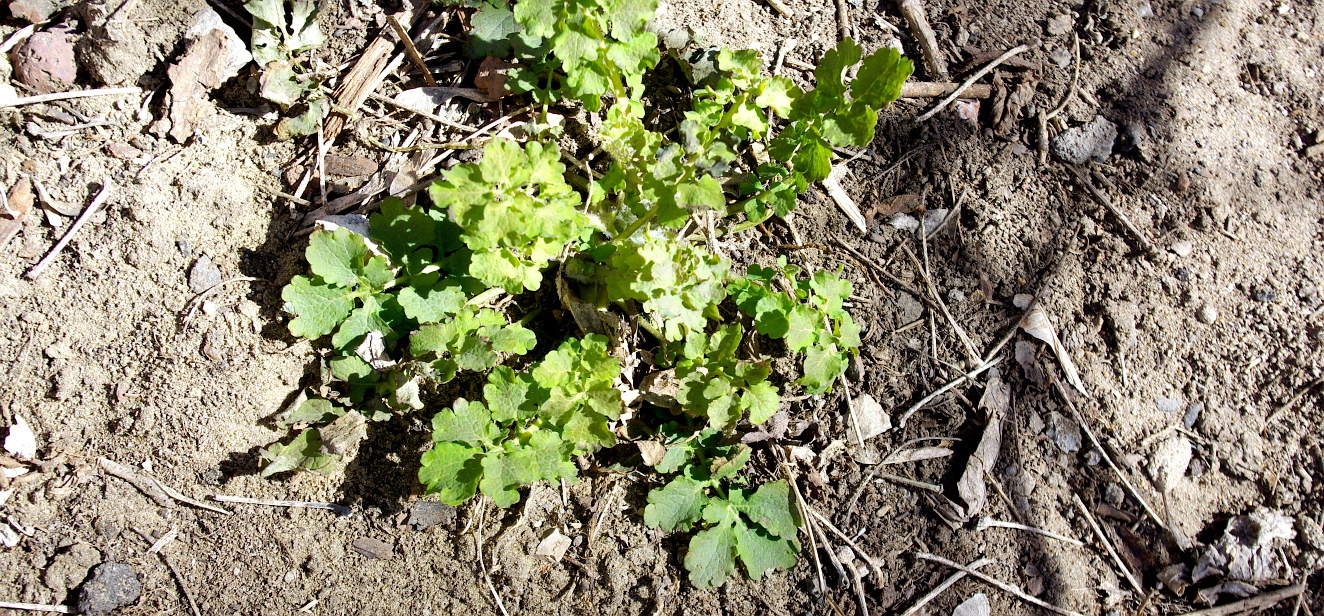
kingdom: Plantae
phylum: Tracheophyta
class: Magnoliopsida
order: Ranunculales
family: Papaveraceae
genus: Chelidonium
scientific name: Chelidonium majus
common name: Greater celandine
